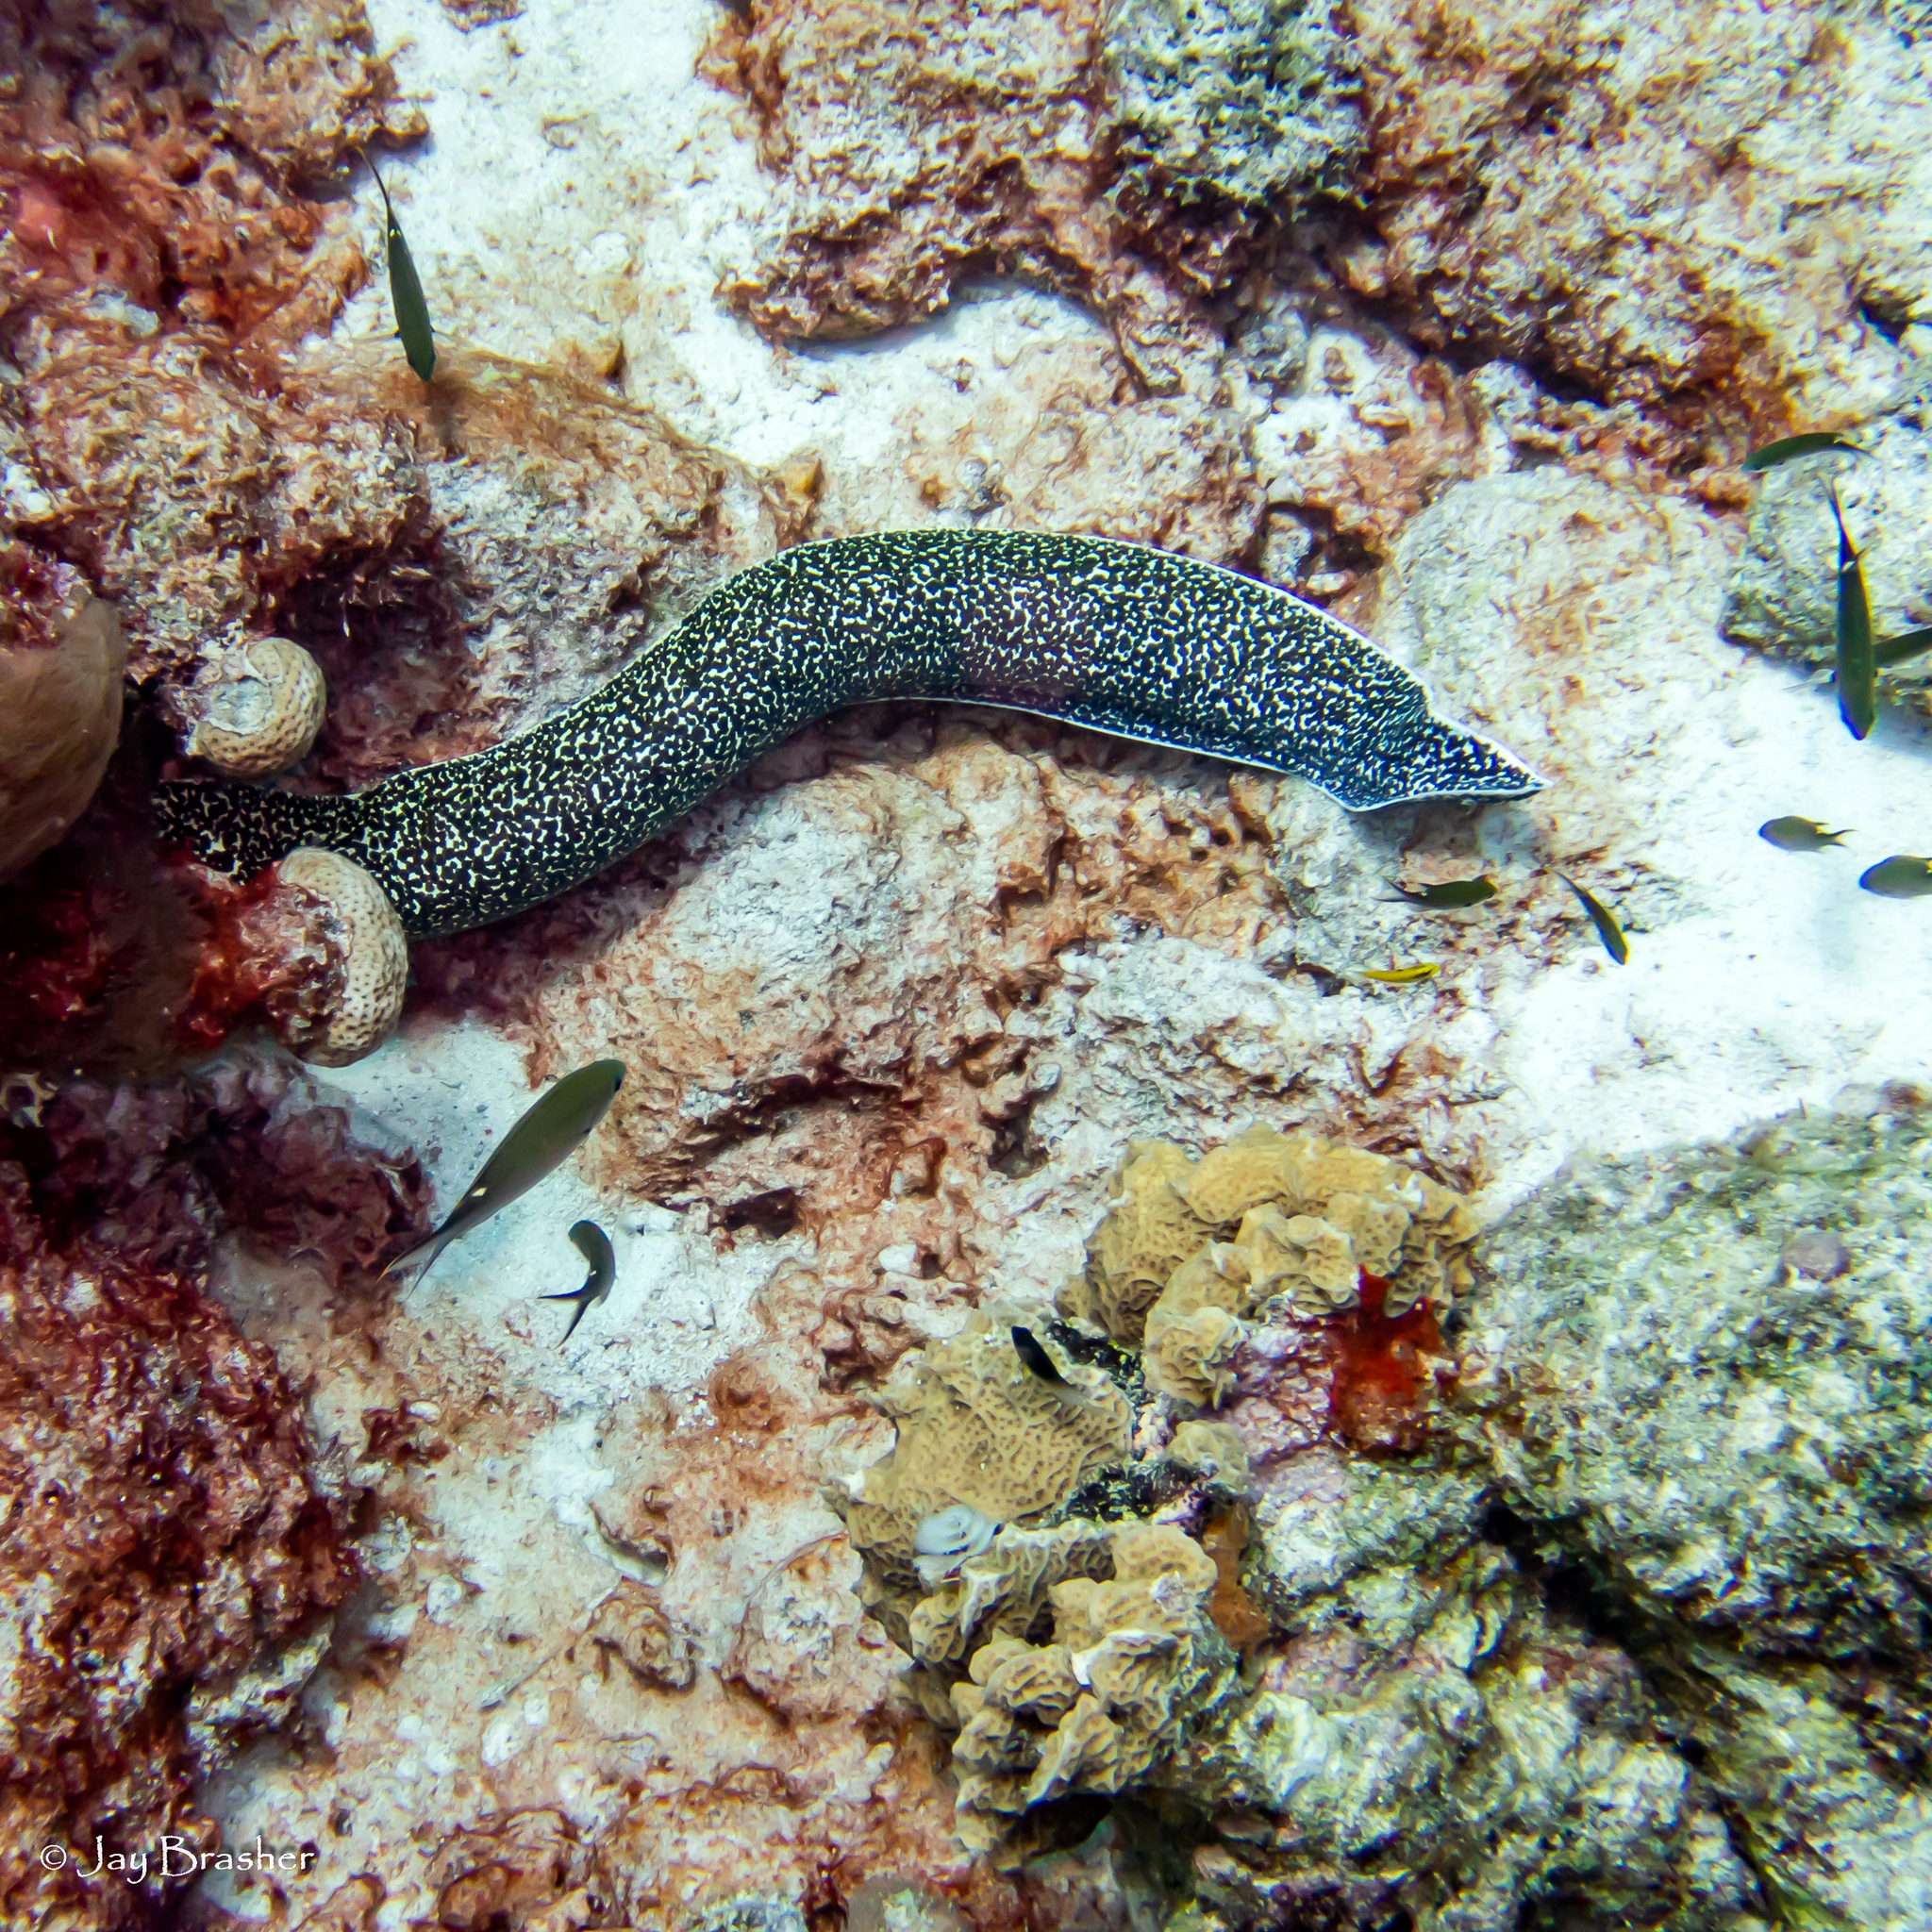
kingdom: Animalia
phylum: Chordata
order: Perciformes
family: Pomacentridae
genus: Chromis
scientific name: Chromis multilineata
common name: Brown chromis
